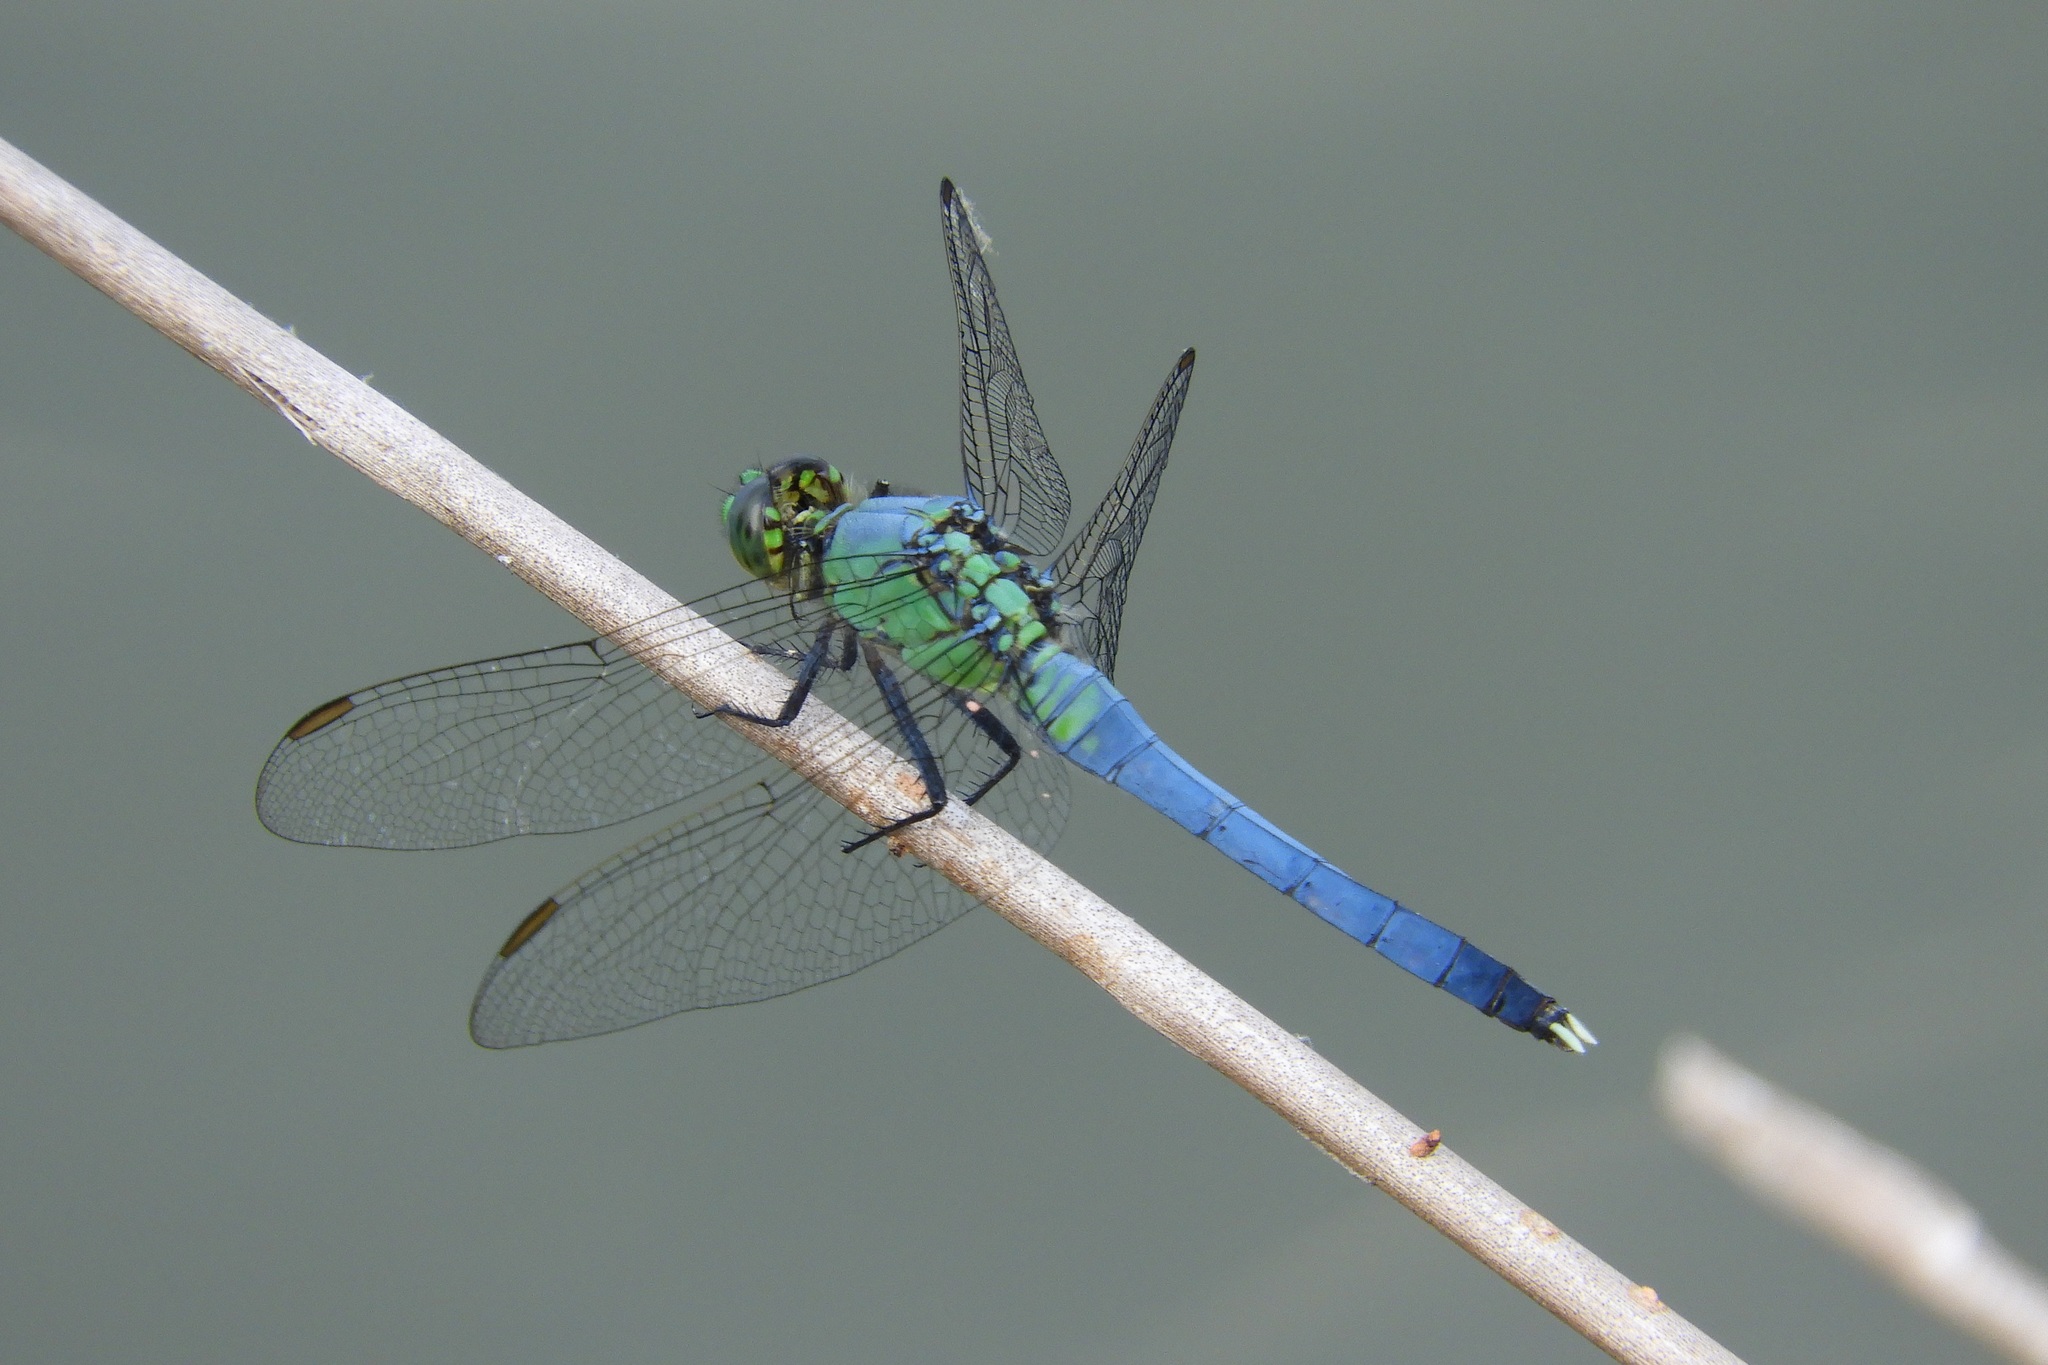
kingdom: Animalia
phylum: Arthropoda
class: Insecta
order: Odonata
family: Libellulidae
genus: Erythemis
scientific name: Erythemis simplicicollis
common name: Eastern pondhawk
